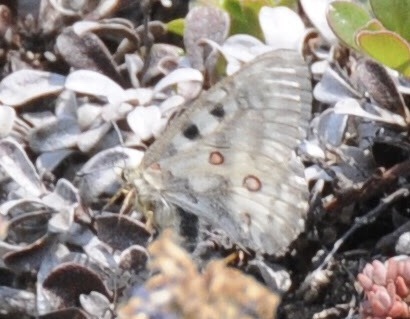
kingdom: Animalia
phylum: Arthropoda
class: Insecta
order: Lepidoptera
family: Papilionidae
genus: Parnassius
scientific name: Parnassius smintheus
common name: Mountain parnassian
